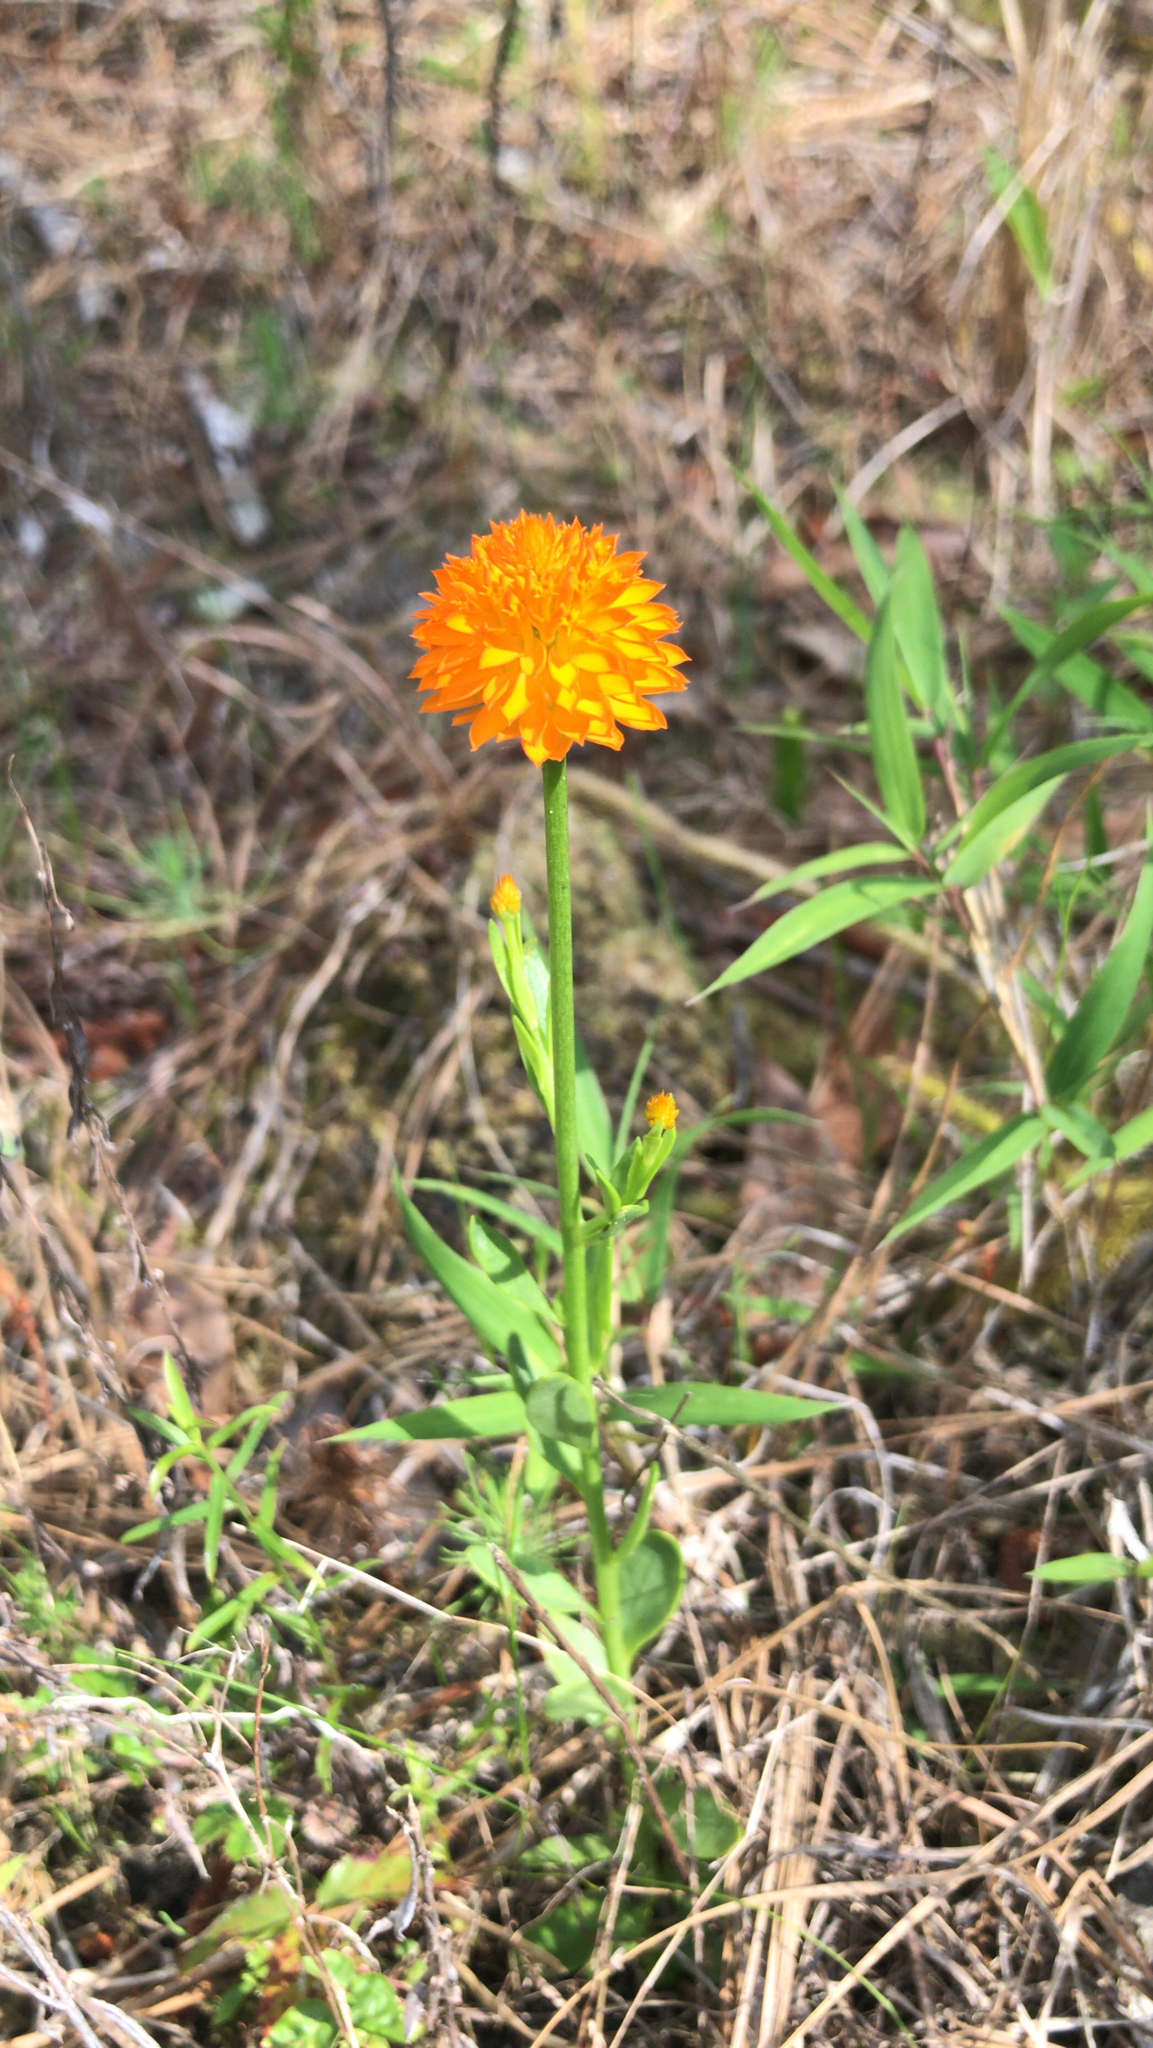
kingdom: Plantae
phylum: Tracheophyta
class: Magnoliopsida
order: Fabales
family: Polygalaceae
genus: Polygala
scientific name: Polygala lutea
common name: Orange milkwort
